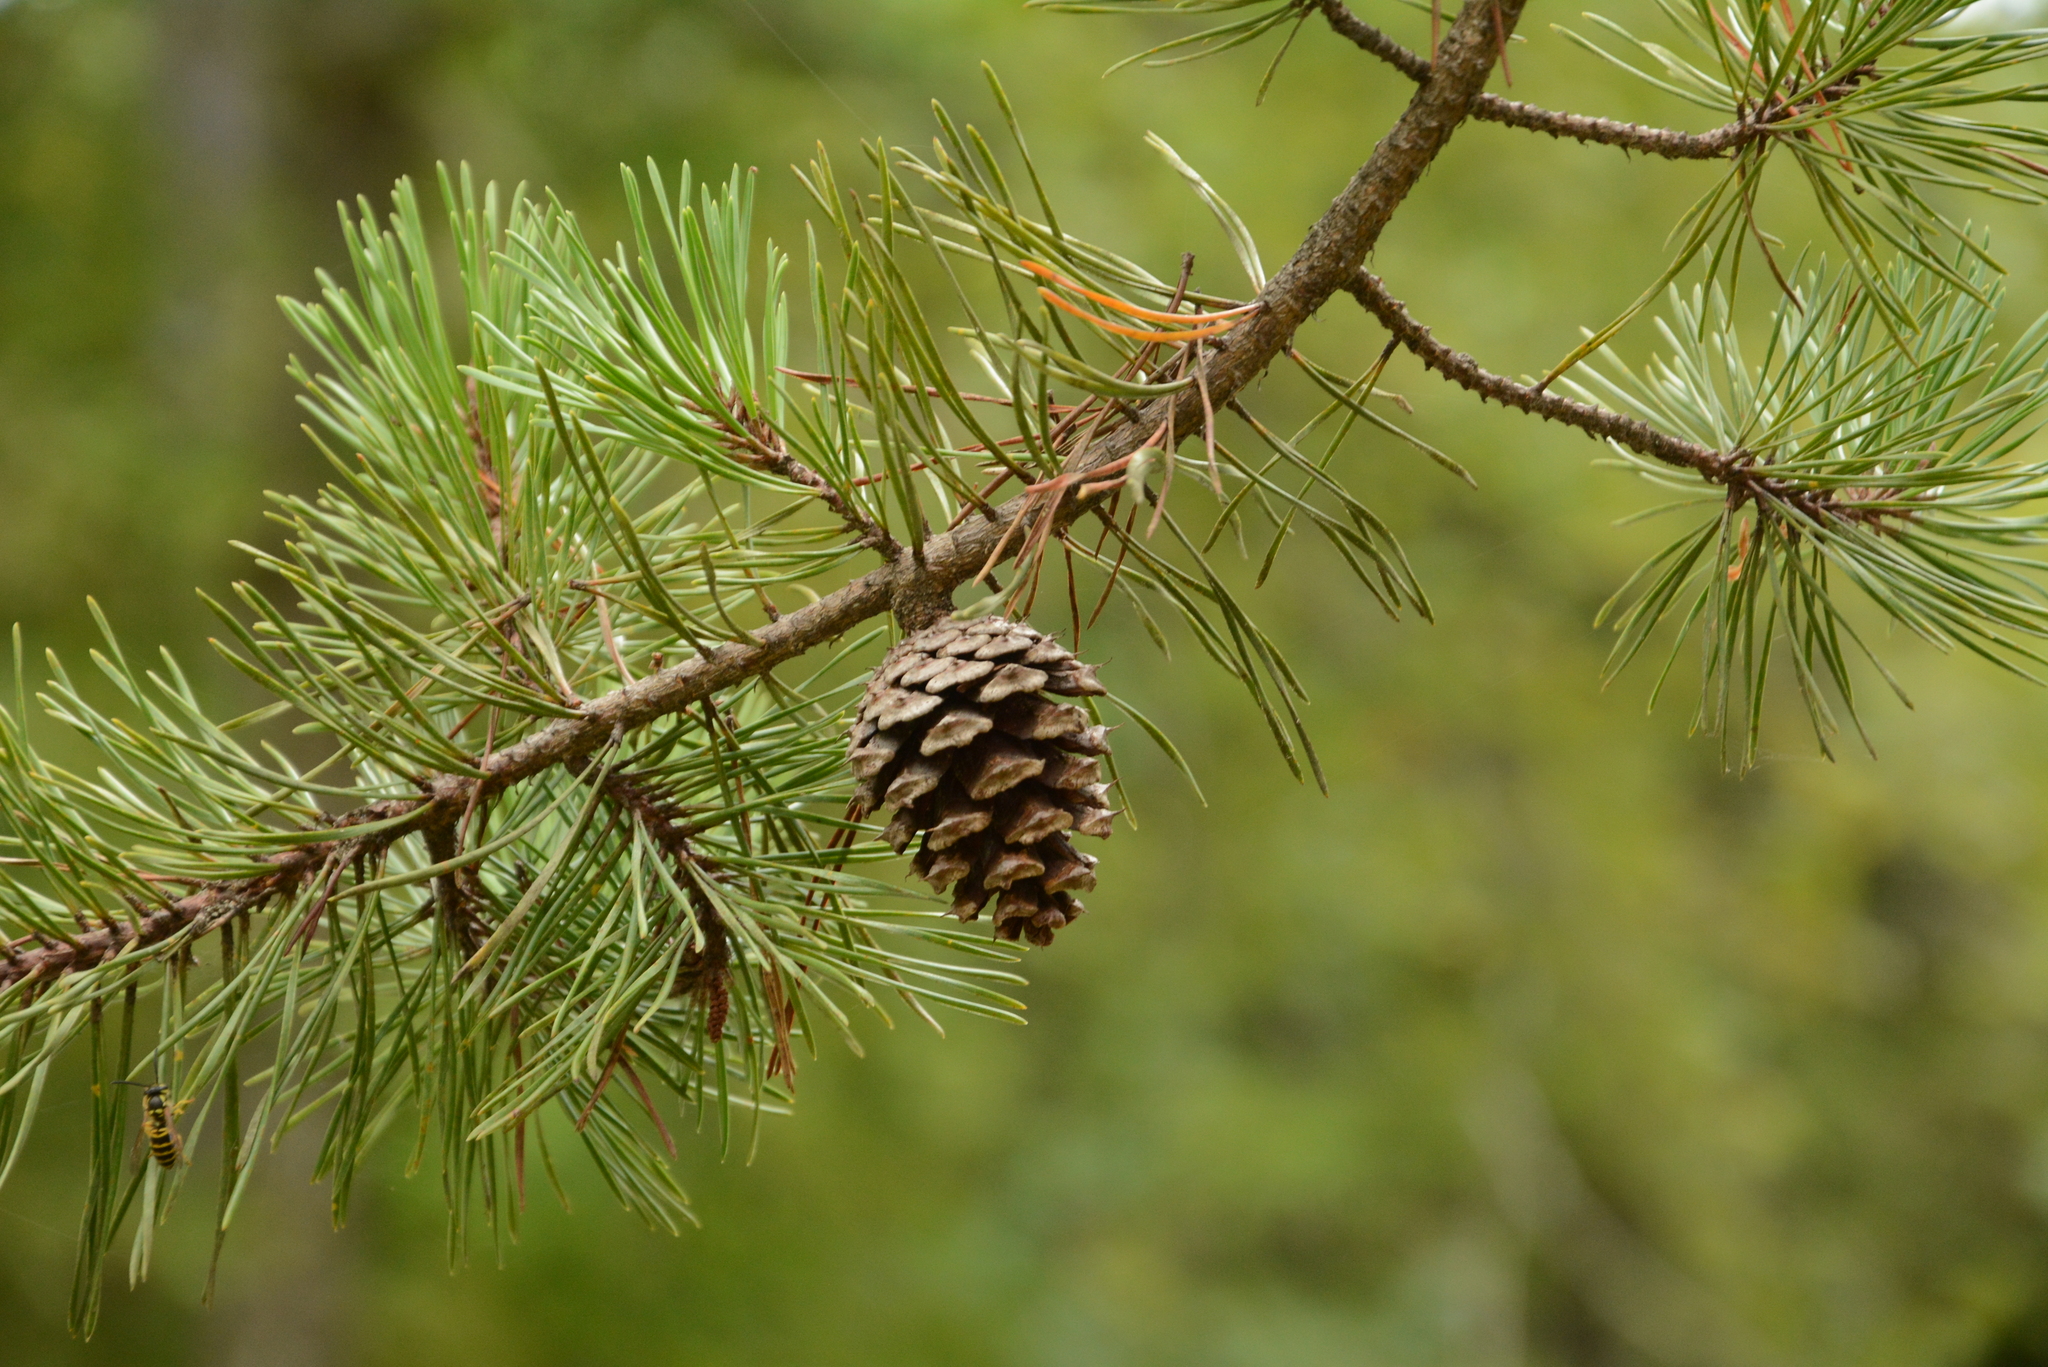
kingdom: Plantae
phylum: Tracheophyta
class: Pinopsida
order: Pinales
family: Pinaceae
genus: Pinus
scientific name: Pinus virginiana
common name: Scrub pine
